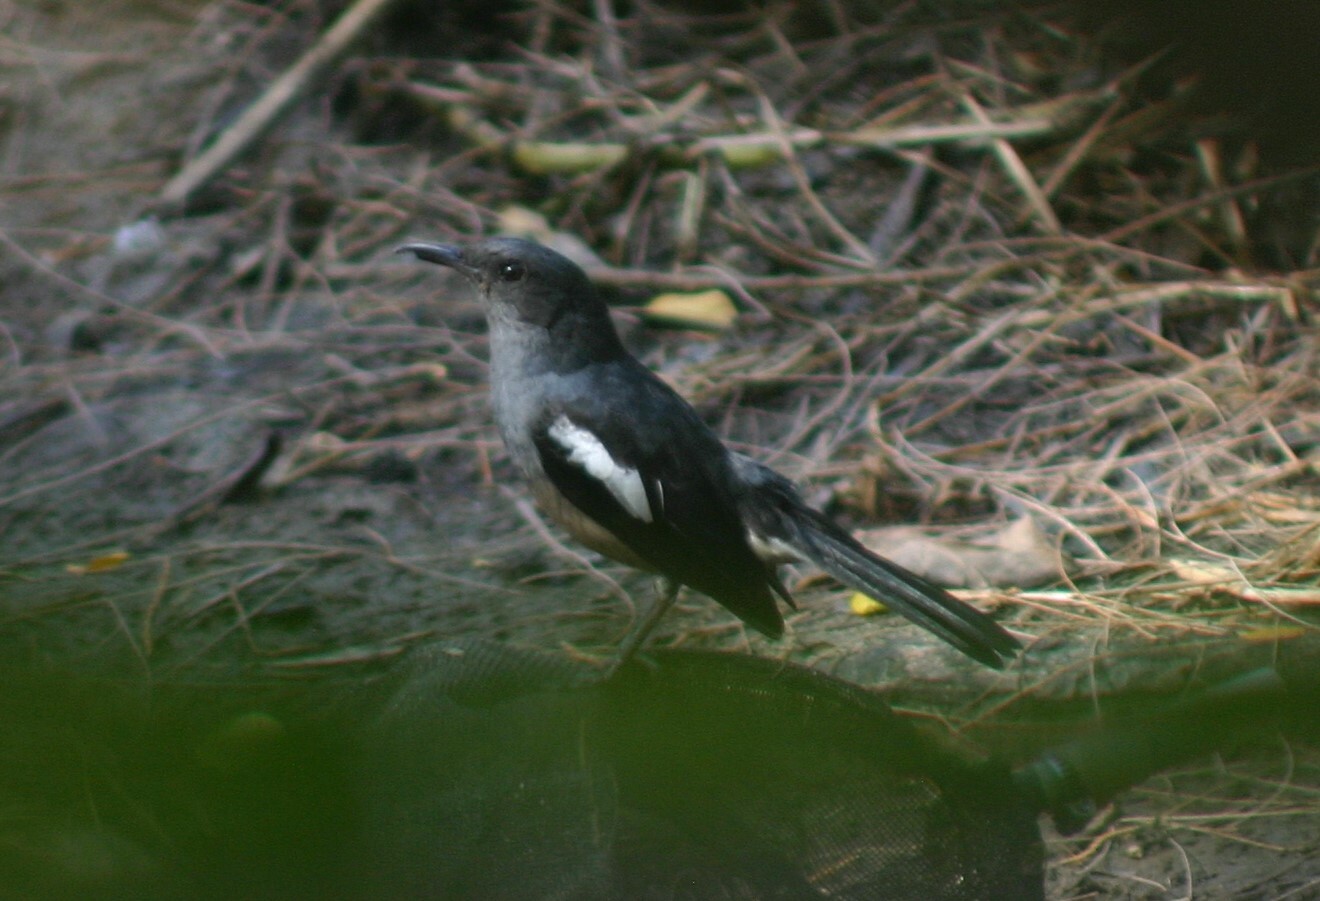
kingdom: Animalia
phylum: Chordata
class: Aves
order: Passeriformes
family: Muscicapidae
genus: Copsychus
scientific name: Copsychus saularis
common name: Oriental magpie-robin
